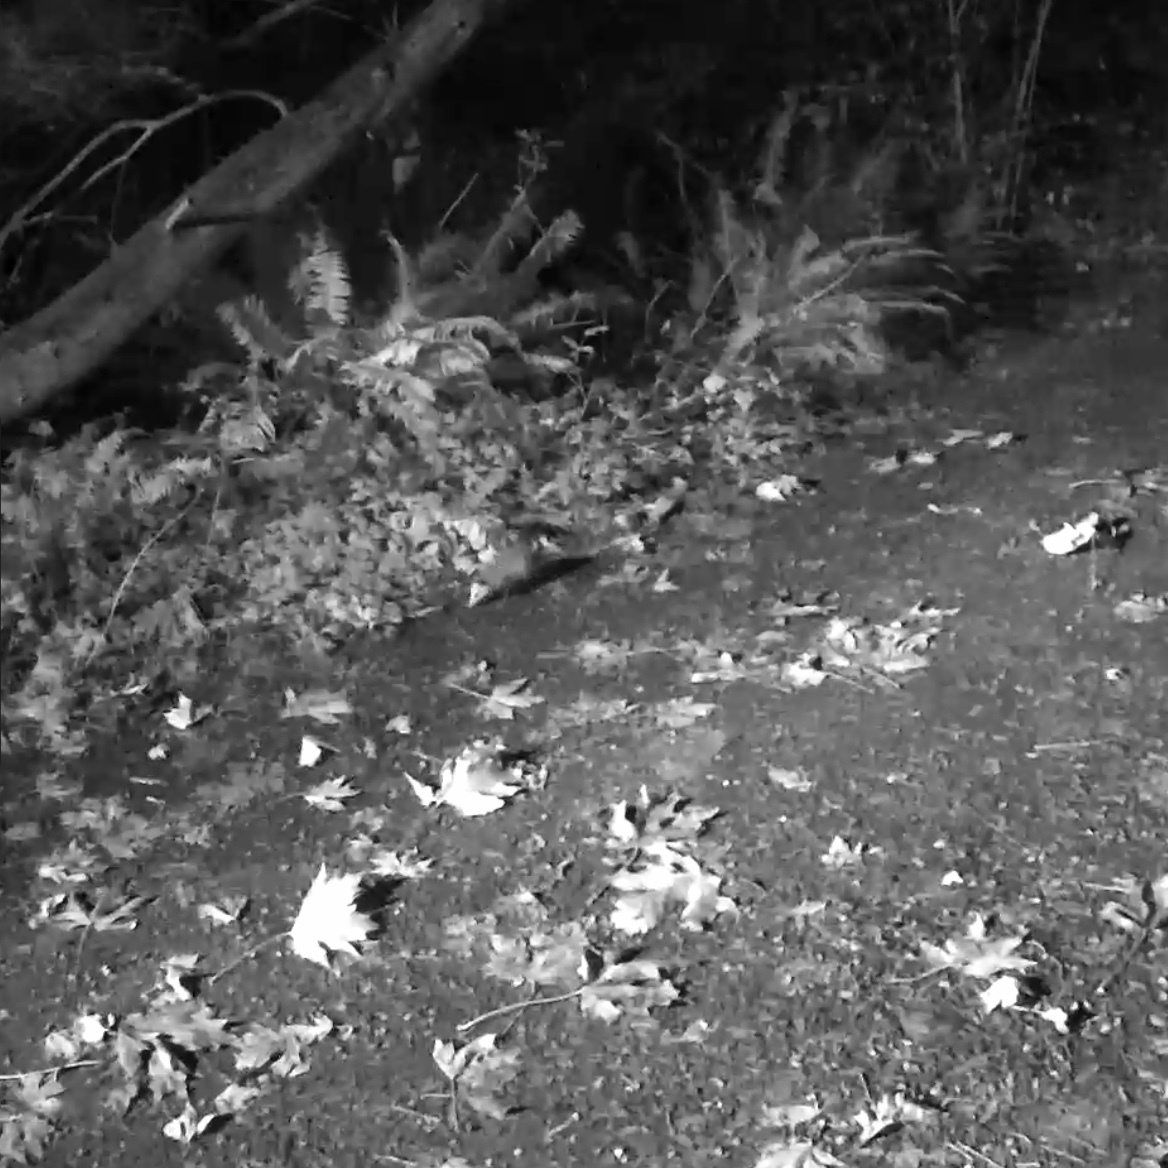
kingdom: Animalia
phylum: Chordata
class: Mammalia
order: Didelphimorphia
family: Didelphidae
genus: Didelphis
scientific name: Didelphis virginiana
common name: Virginia opossum
